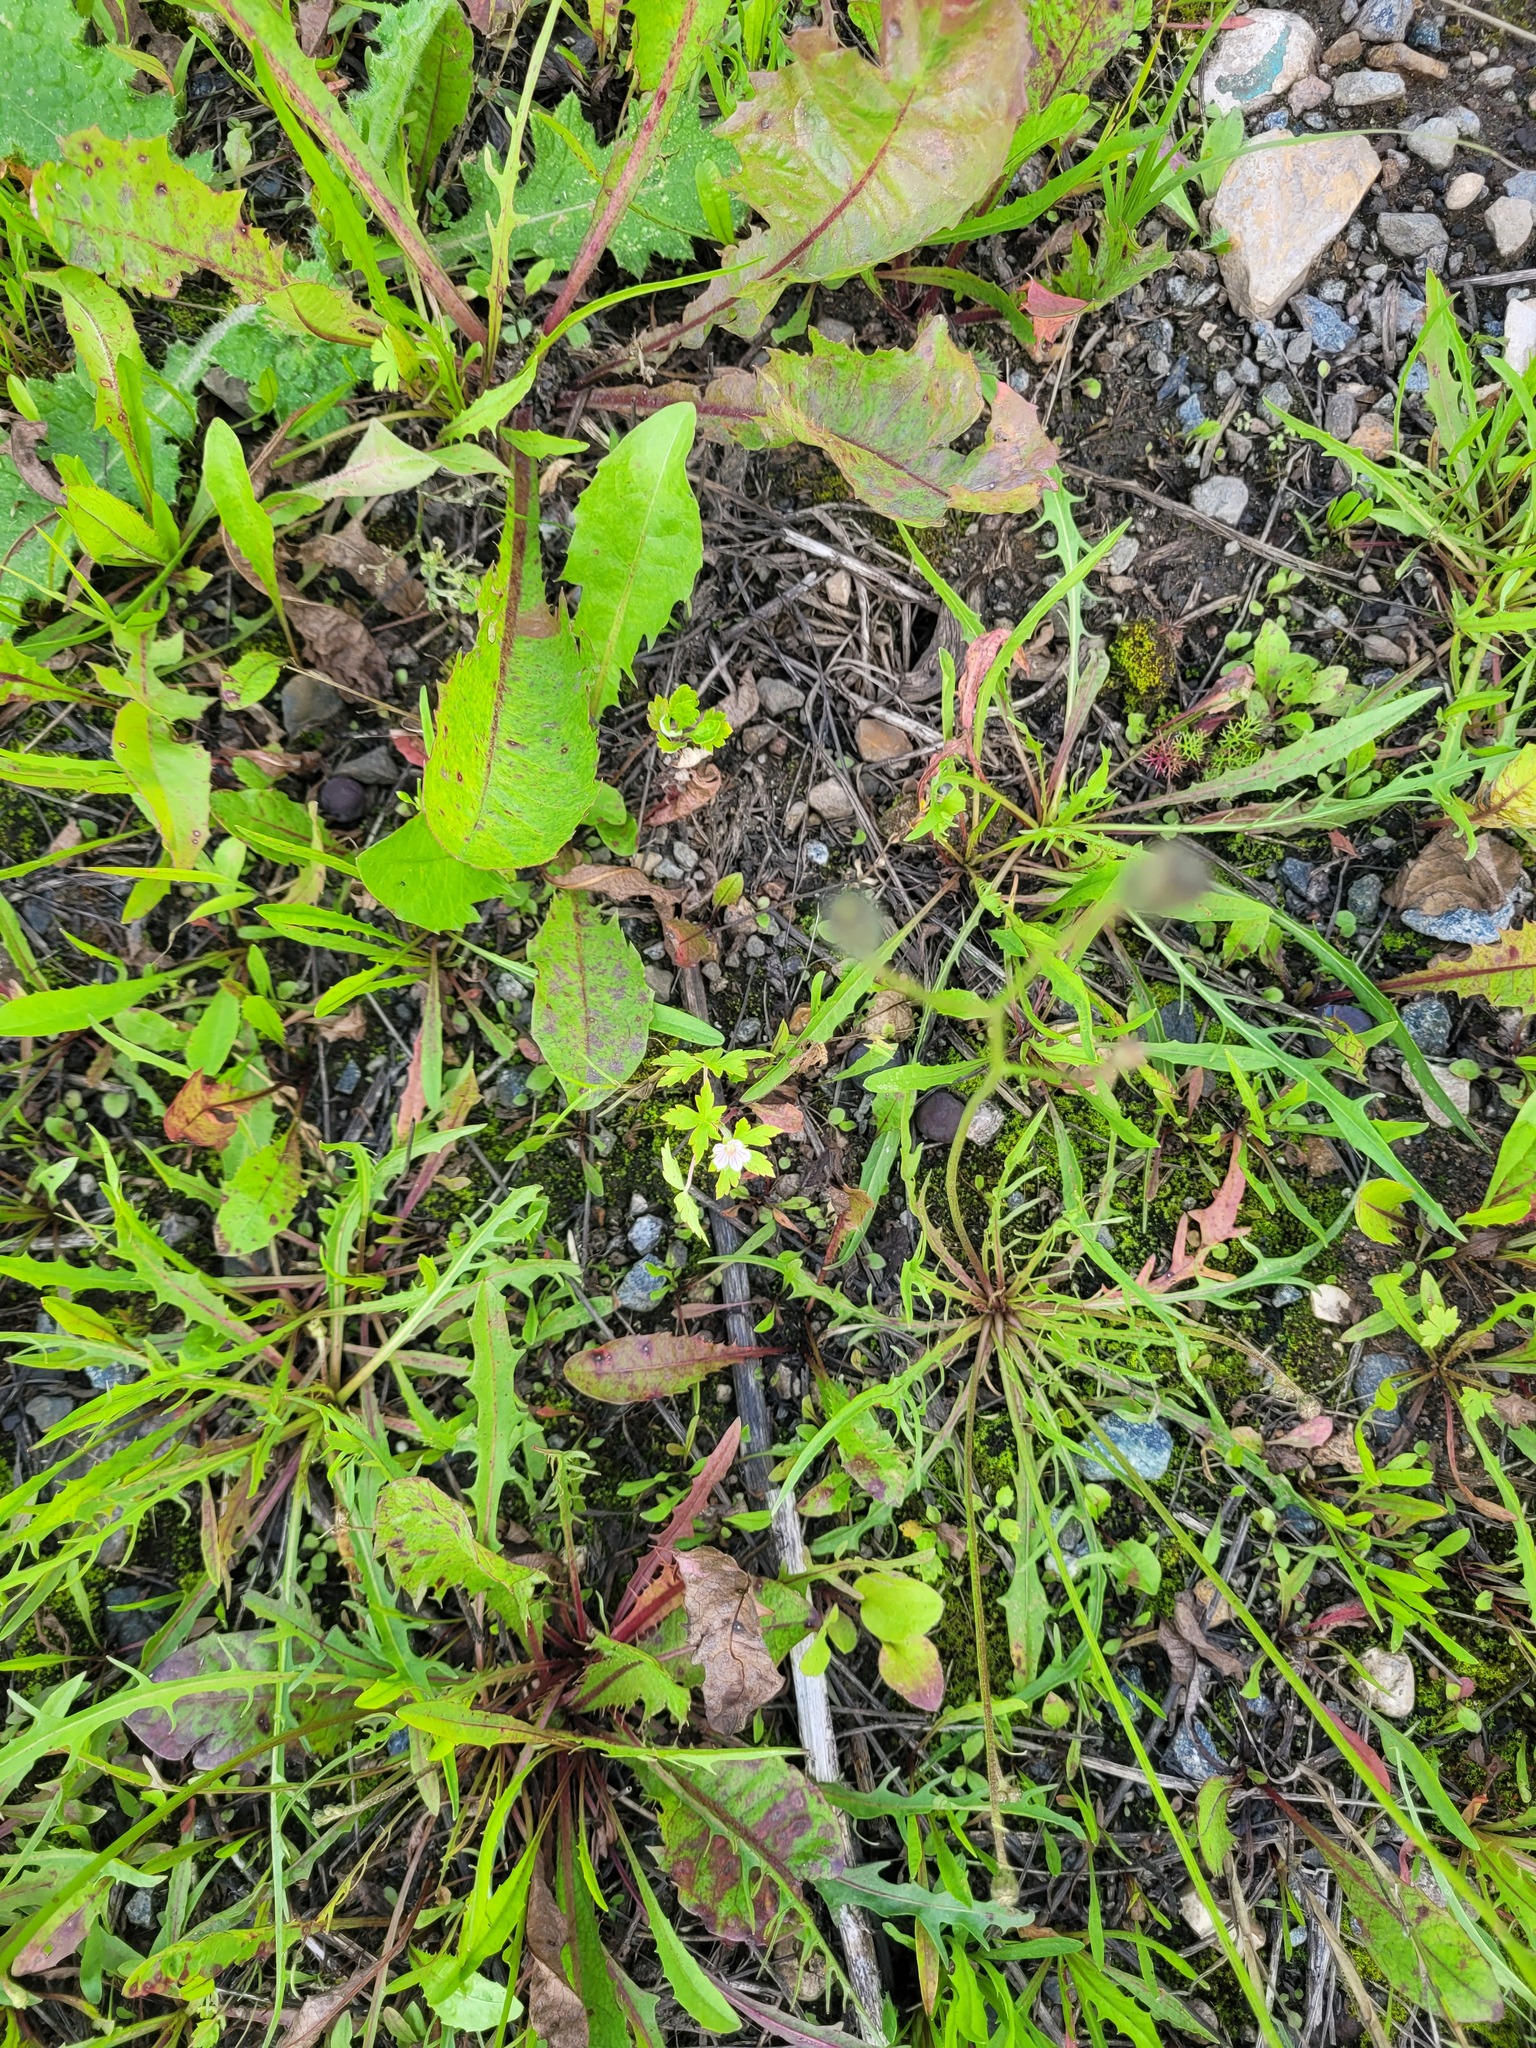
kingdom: Plantae
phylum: Tracheophyta
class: Magnoliopsida
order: Geraniales
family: Geraniaceae
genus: Geranium
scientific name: Geranium sibiricum
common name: Siberian crane's-bill
